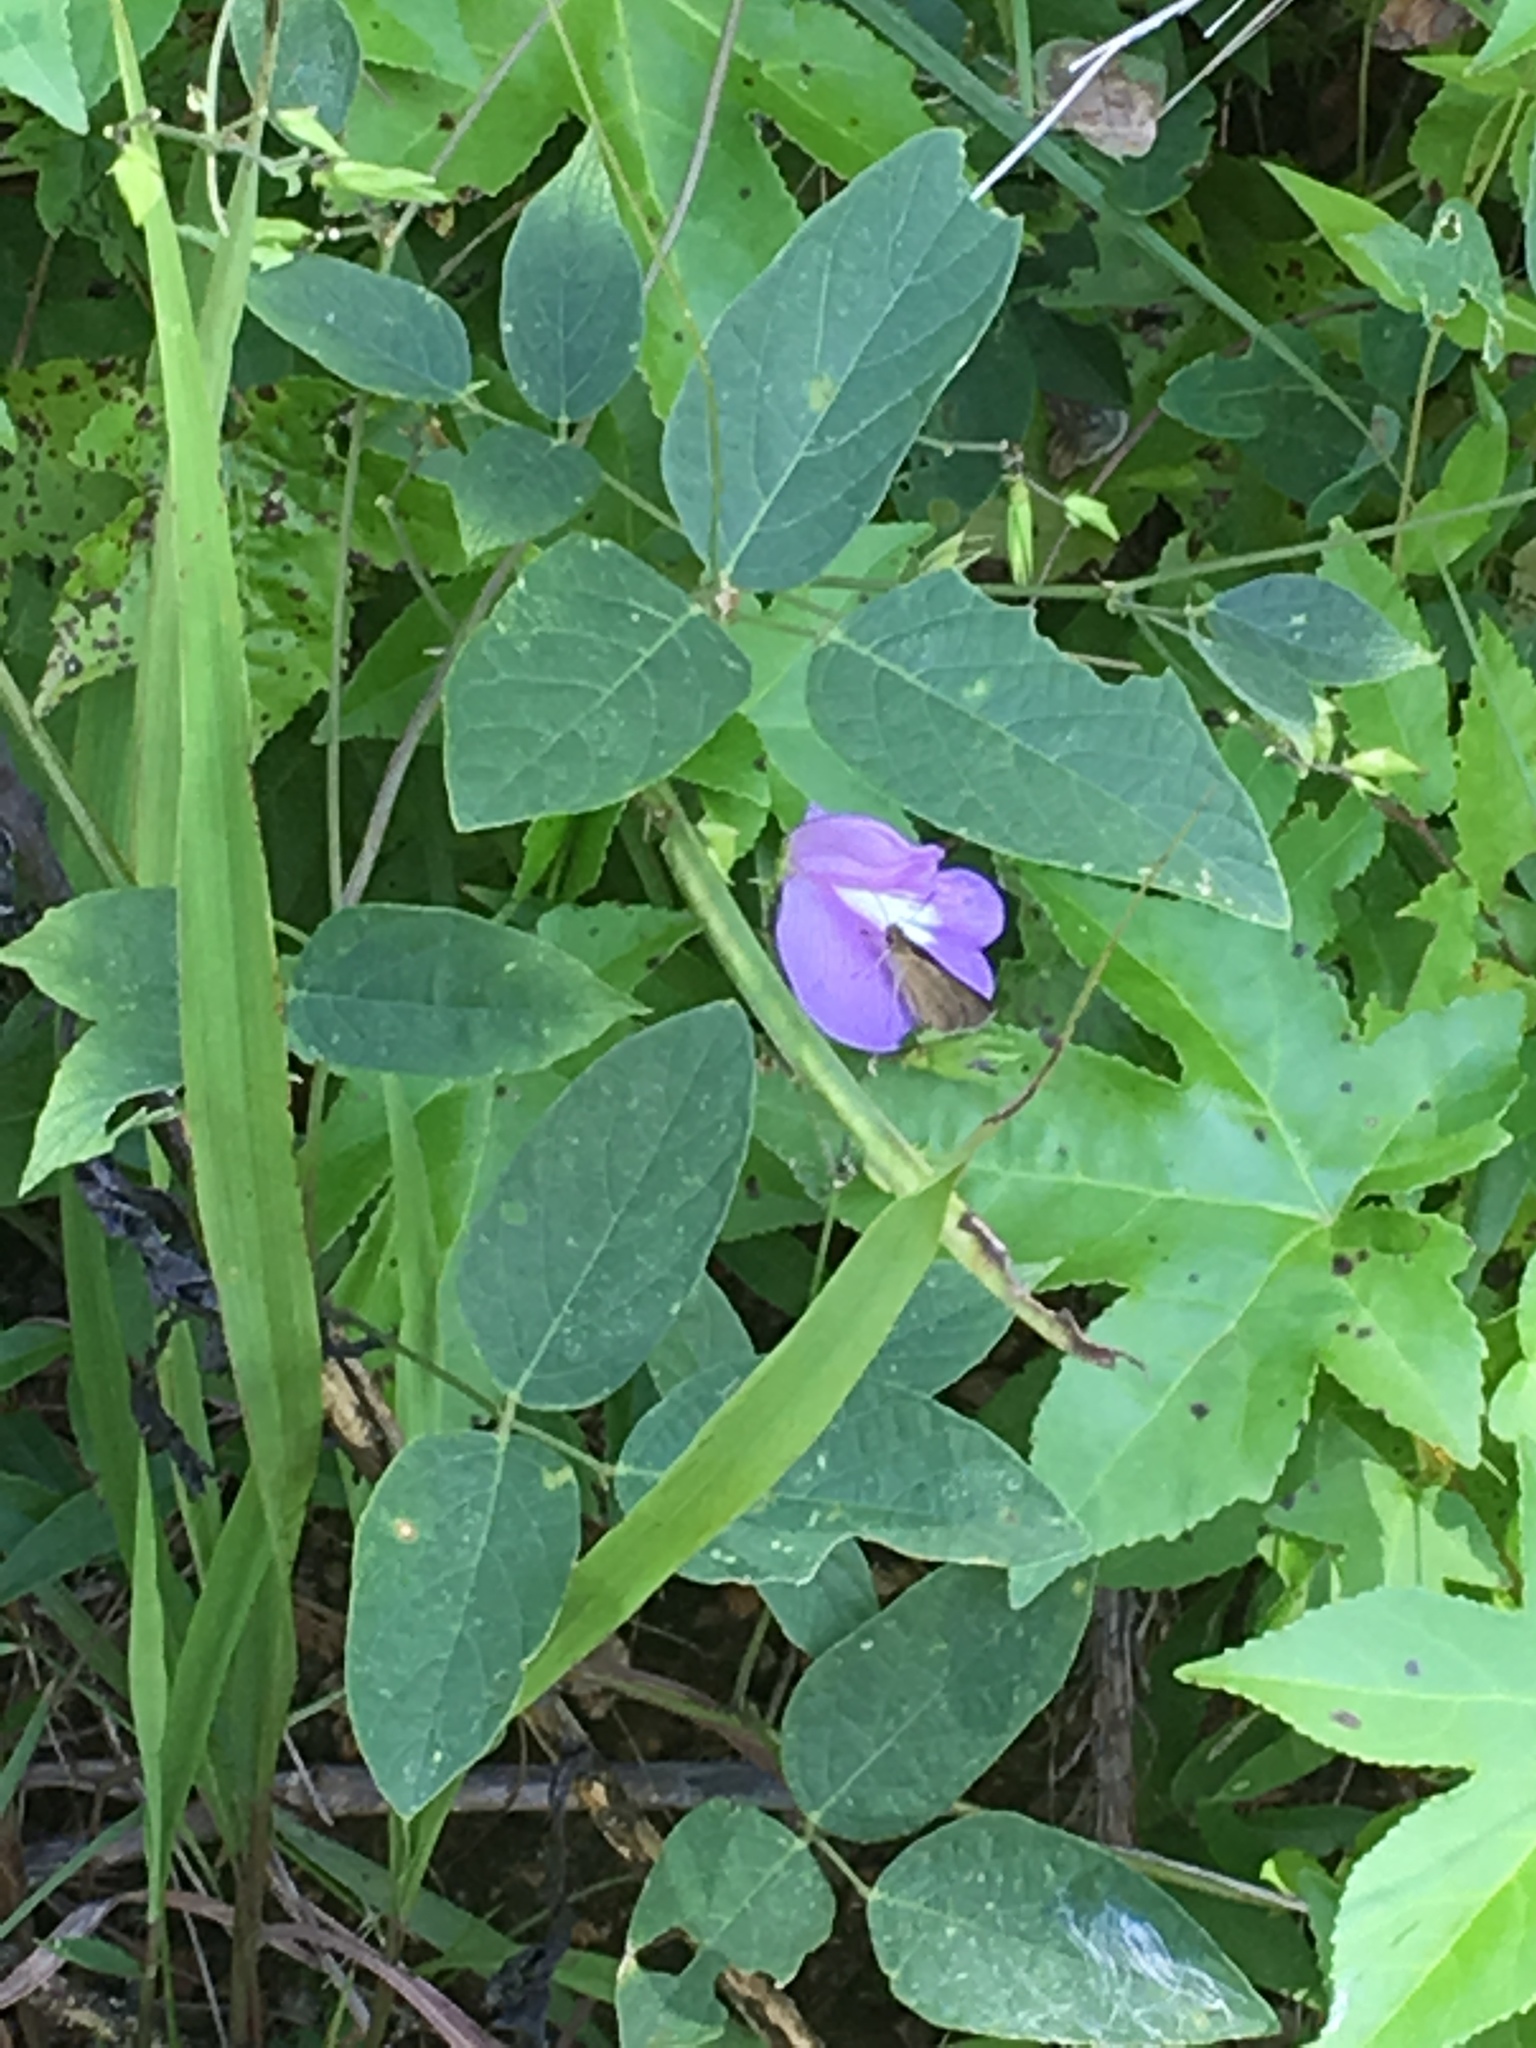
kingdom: Plantae
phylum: Tracheophyta
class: Magnoliopsida
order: Fabales
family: Fabaceae
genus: Centrosema
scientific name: Centrosema virginianum
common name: Butterfly-pea
